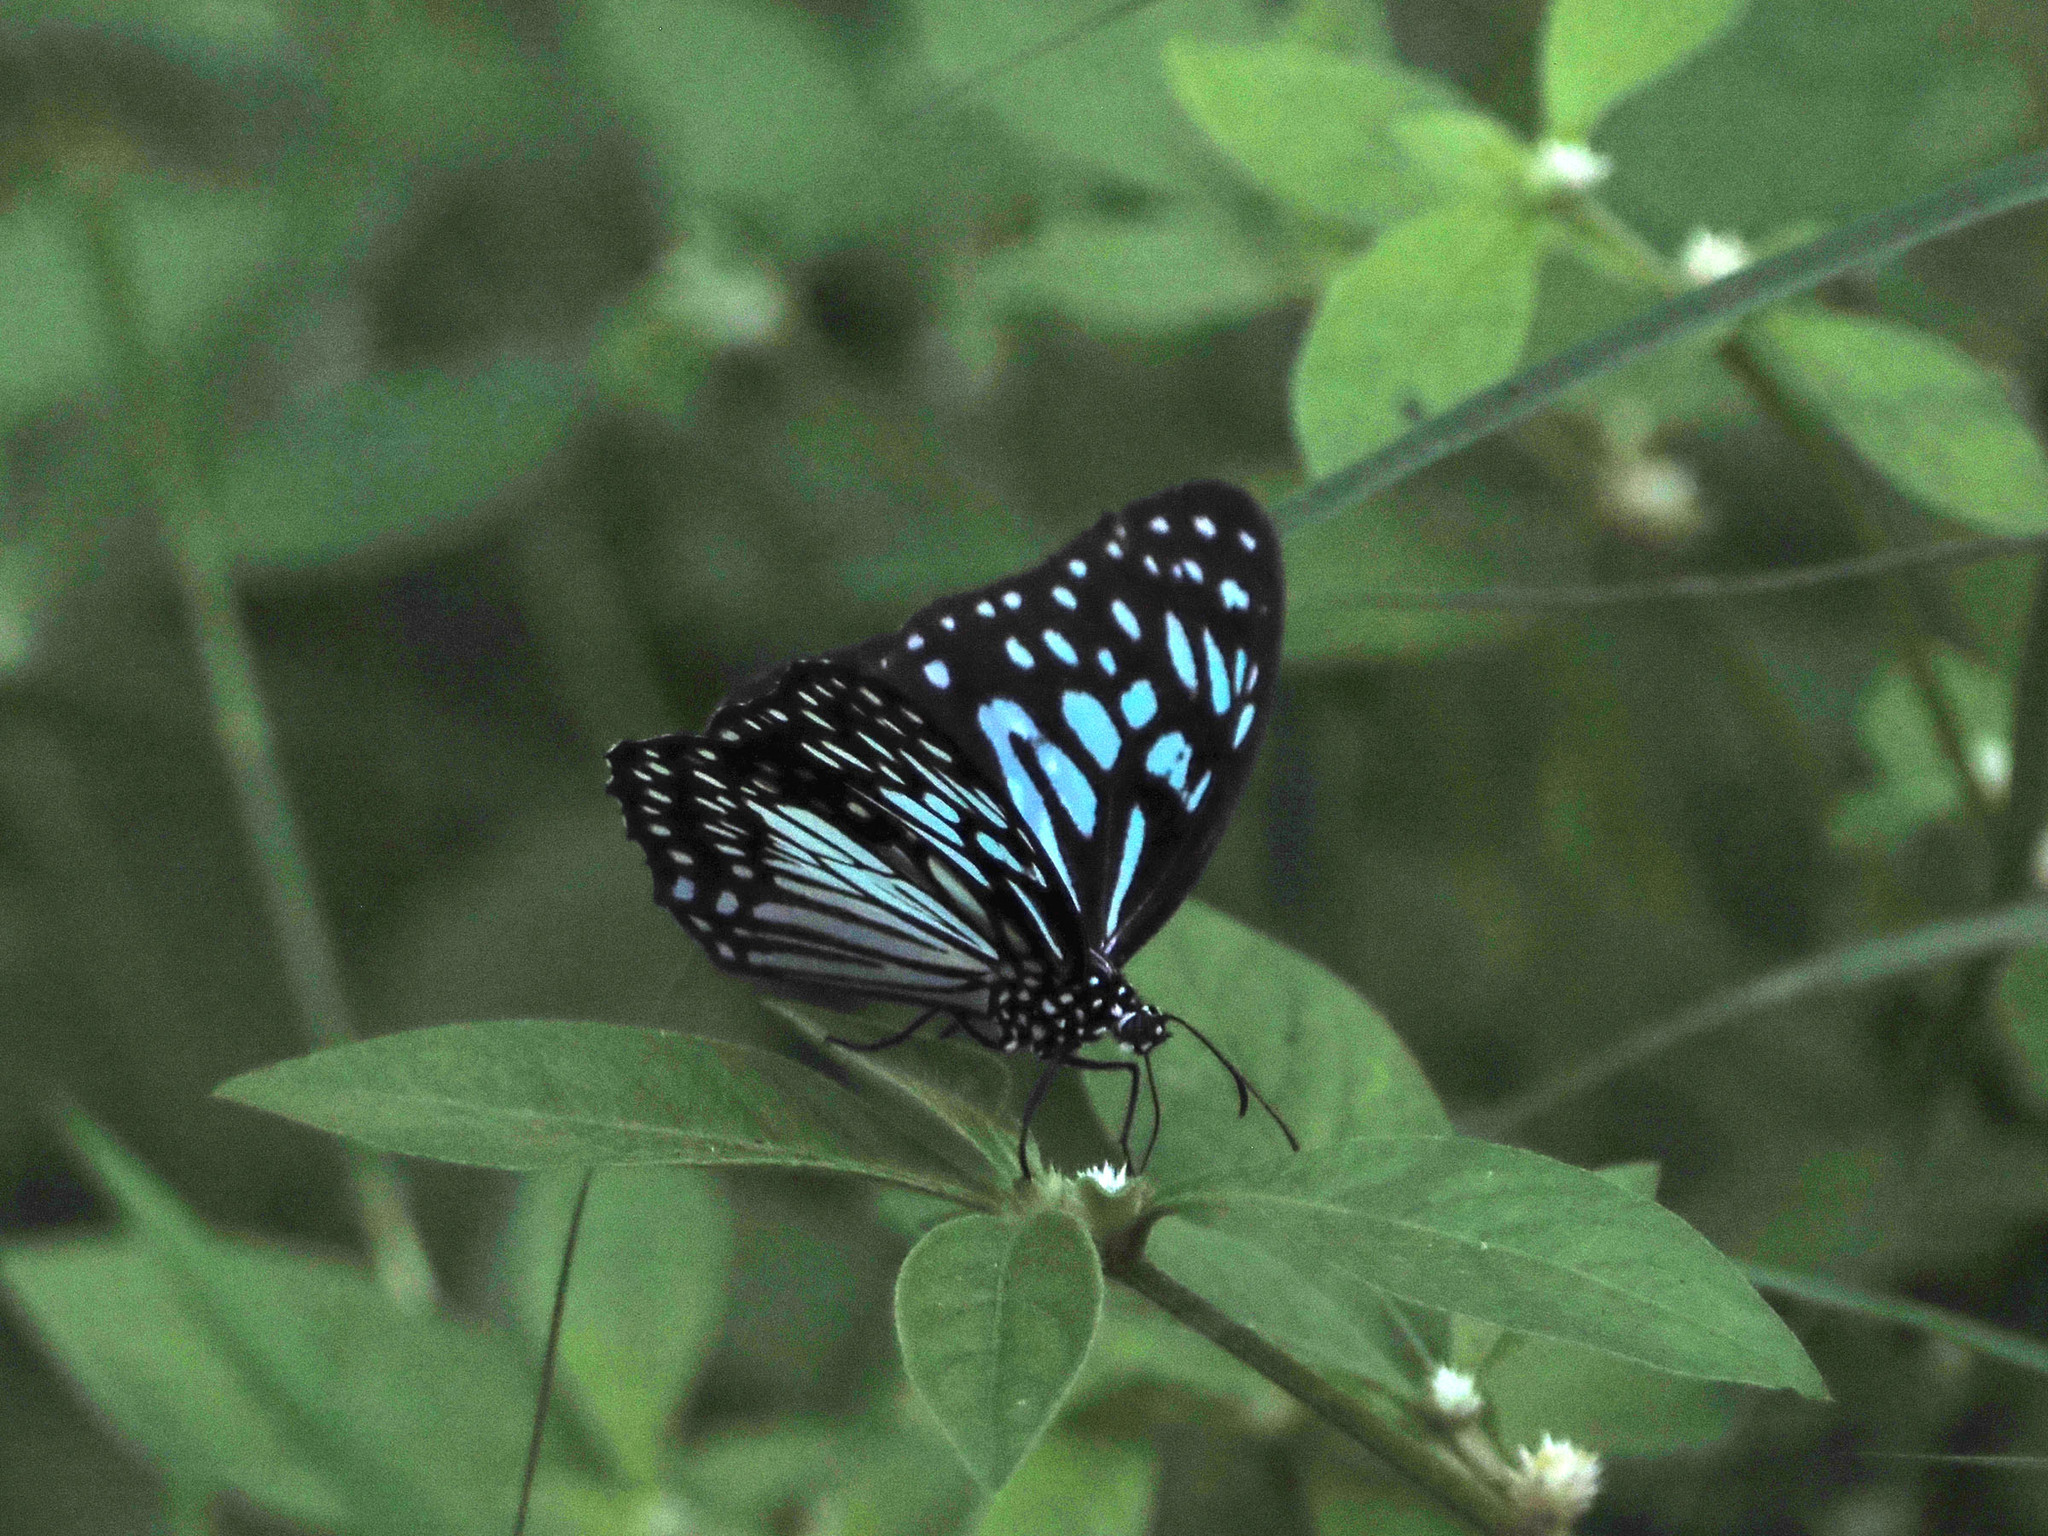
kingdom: Animalia
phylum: Arthropoda
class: Insecta
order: Lepidoptera
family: Nymphalidae
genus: Tirumala
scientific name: Tirumala hamata
